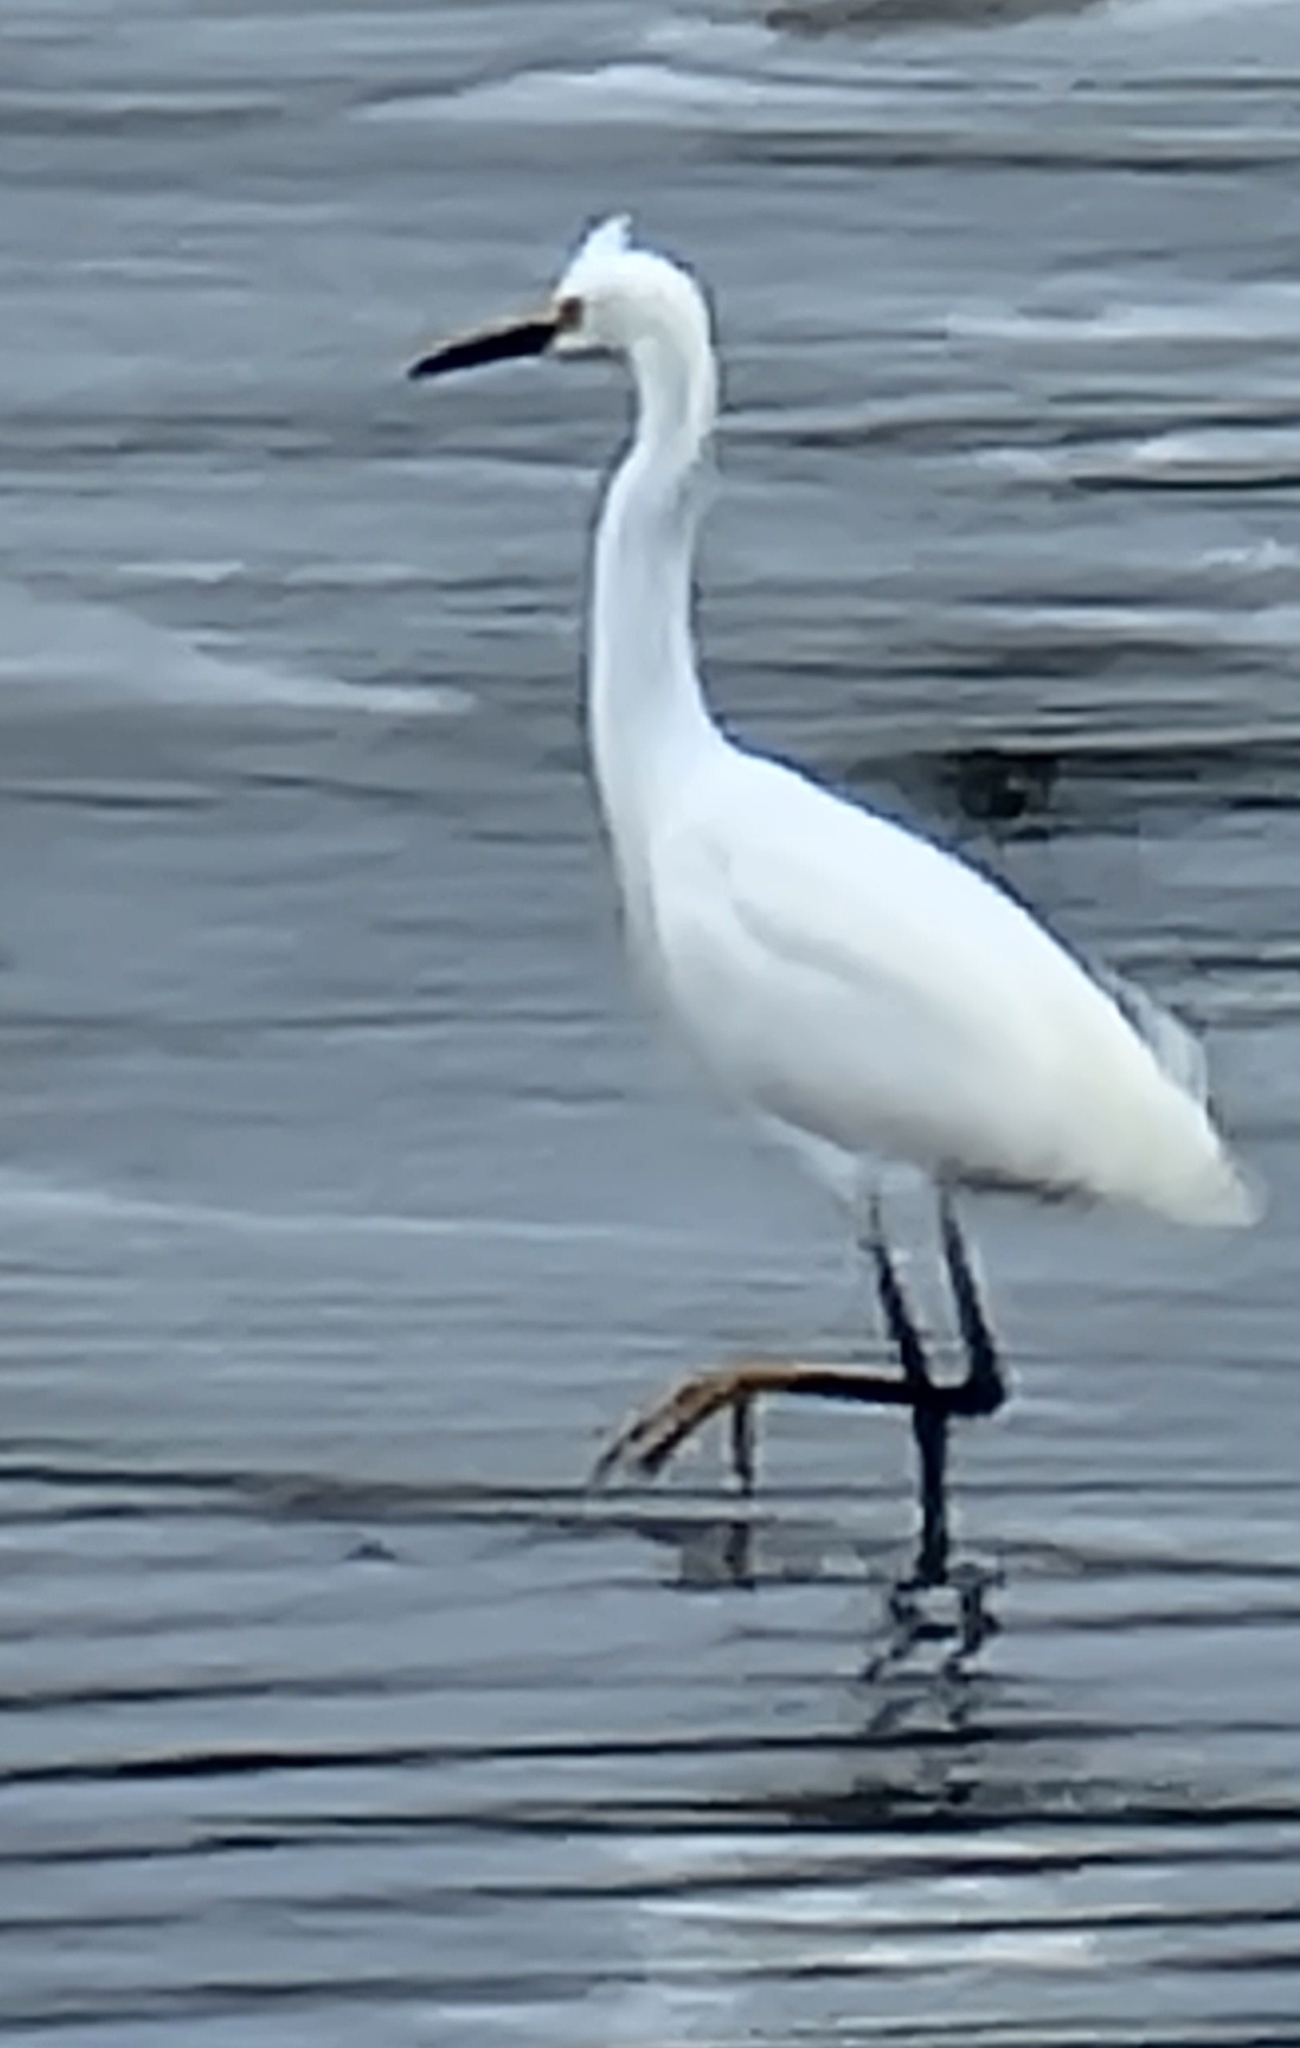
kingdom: Animalia
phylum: Chordata
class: Aves
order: Pelecaniformes
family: Ardeidae
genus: Egretta
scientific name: Egretta thula
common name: Snowy egret
